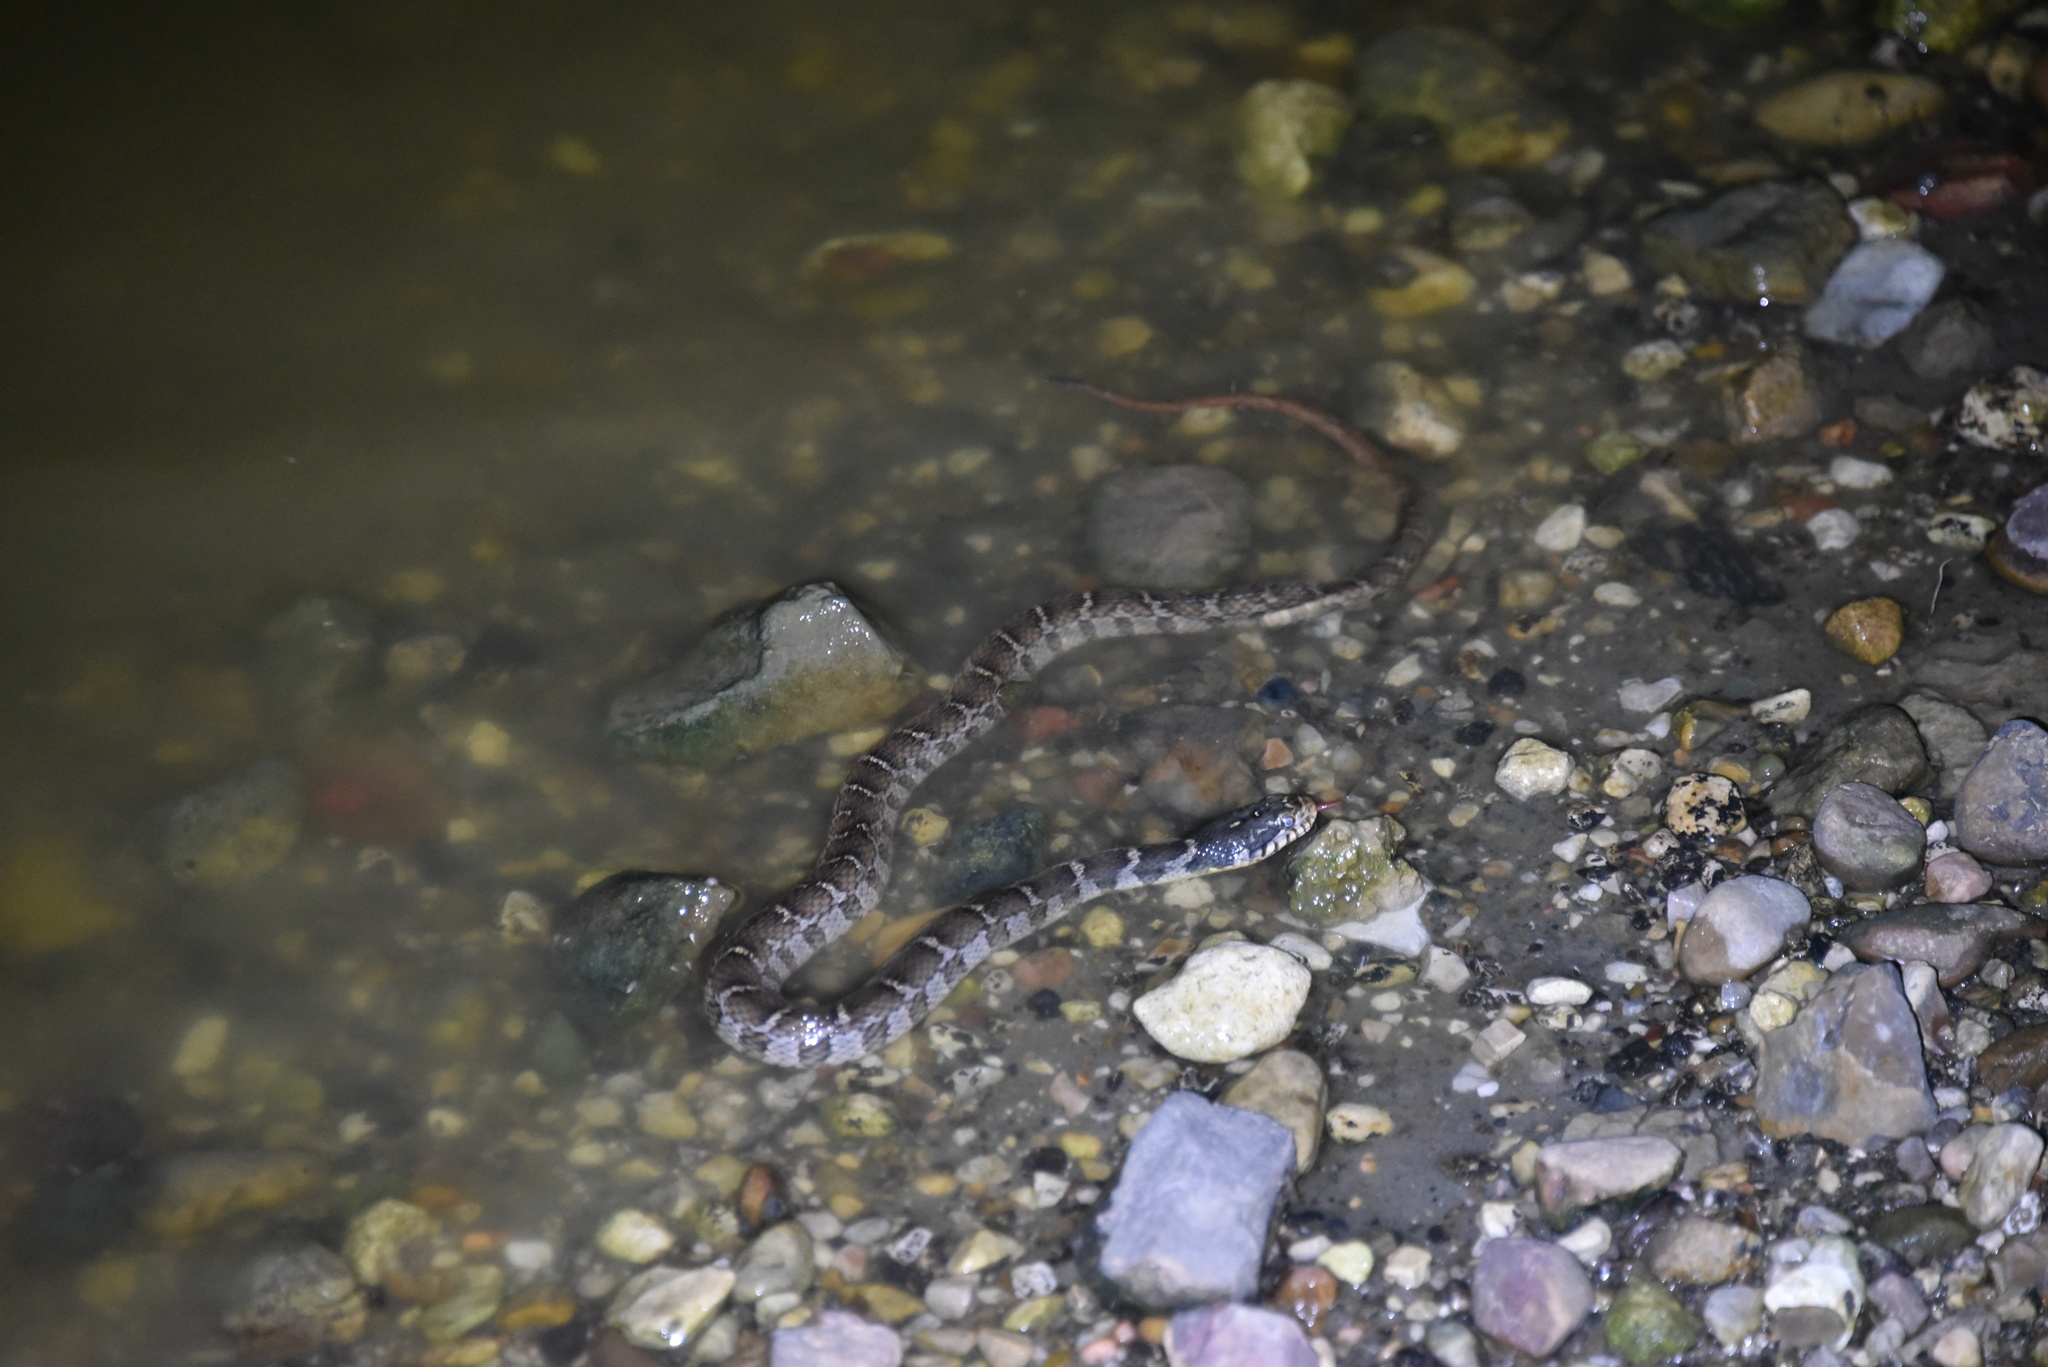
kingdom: Animalia
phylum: Chordata
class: Squamata
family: Colubridae
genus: Nerodia
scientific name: Nerodia erythrogaster
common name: Plainbelly water snake
